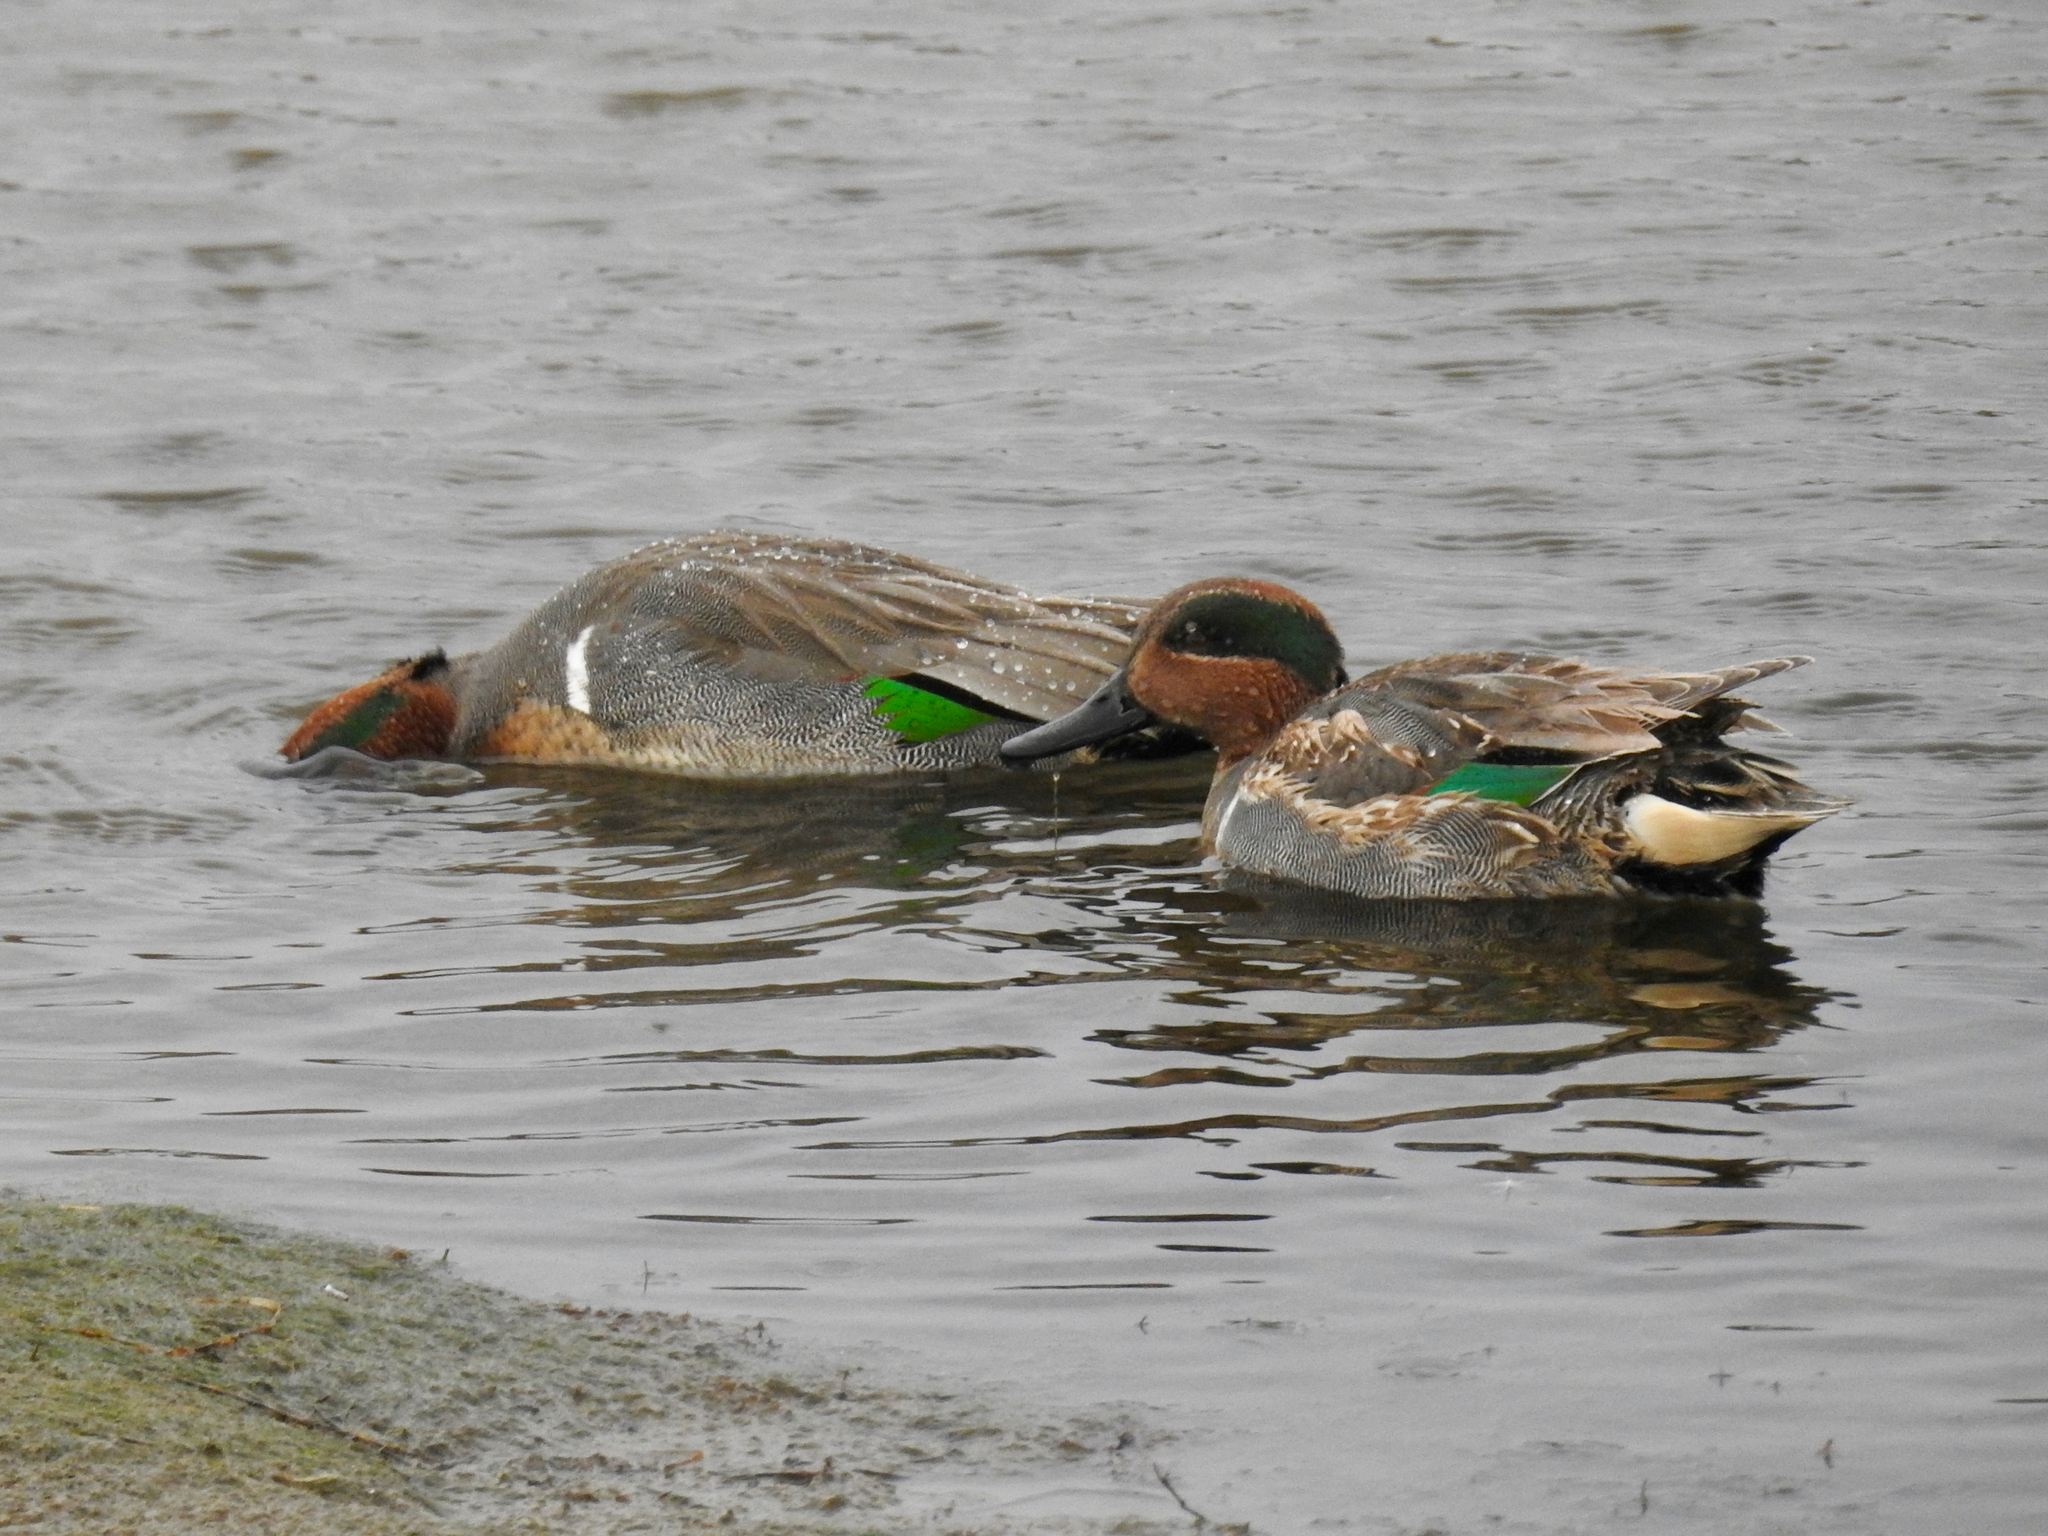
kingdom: Animalia
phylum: Chordata
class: Aves
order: Anseriformes
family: Anatidae
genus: Anas
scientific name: Anas crecca
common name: Eurasian teal
